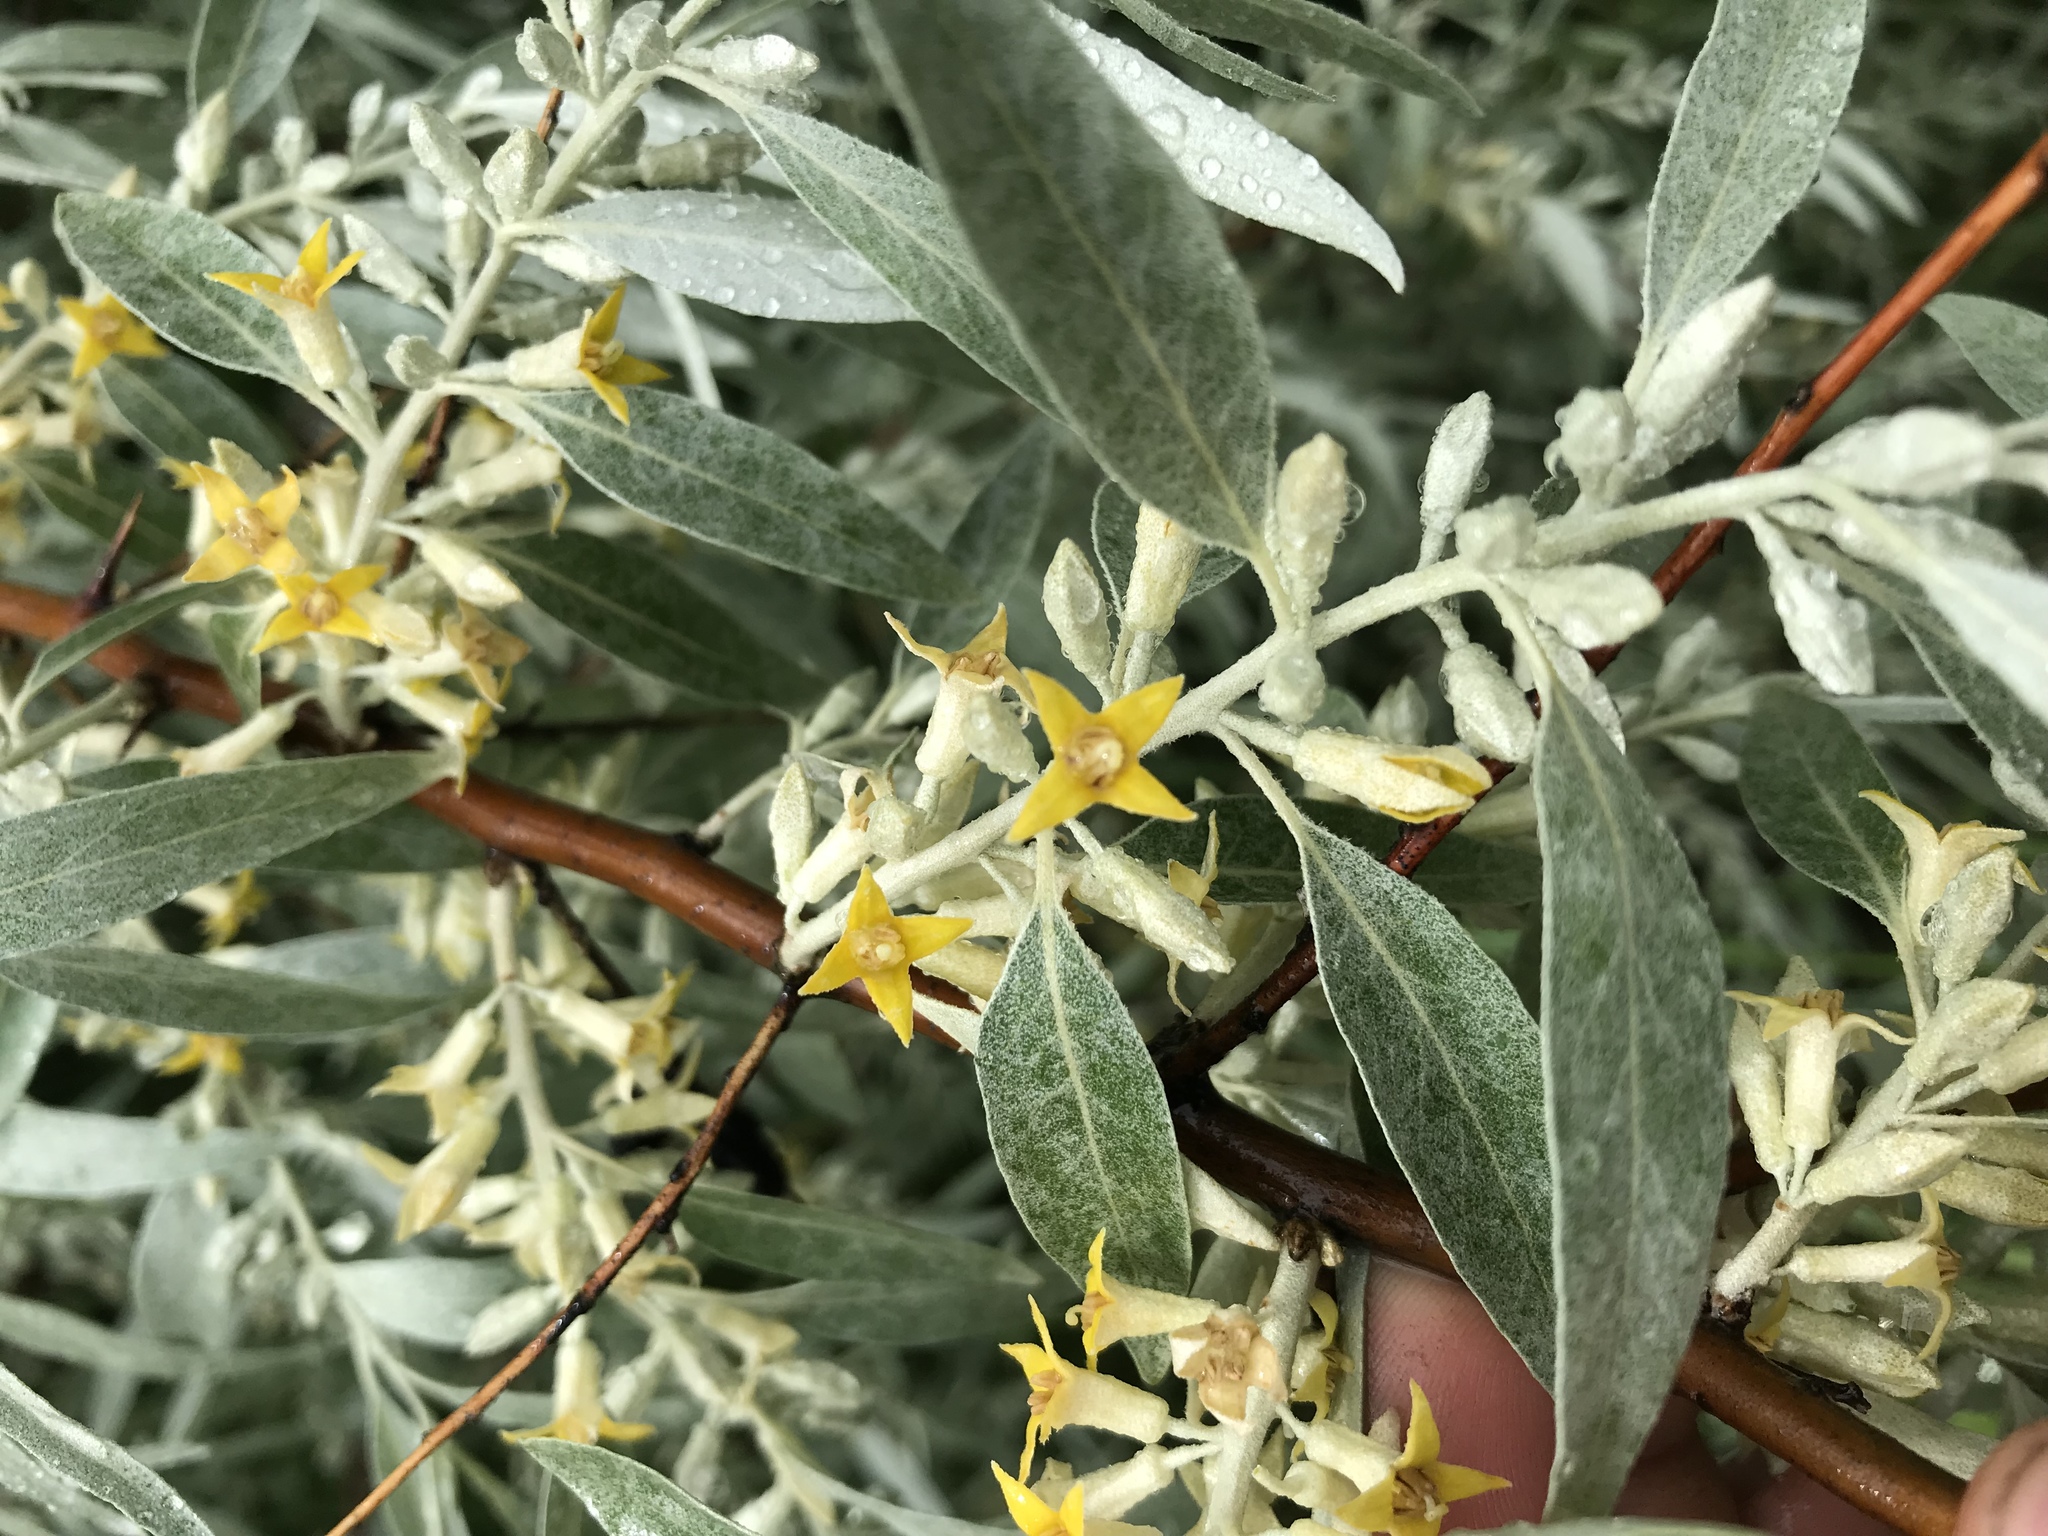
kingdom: Plantae
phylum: Tracheophyta
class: Magnoliopsida
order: Rosales
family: Elaeagnaceae
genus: Elaeagnus
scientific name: Elaeagnus angustifolia
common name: Russian olive
